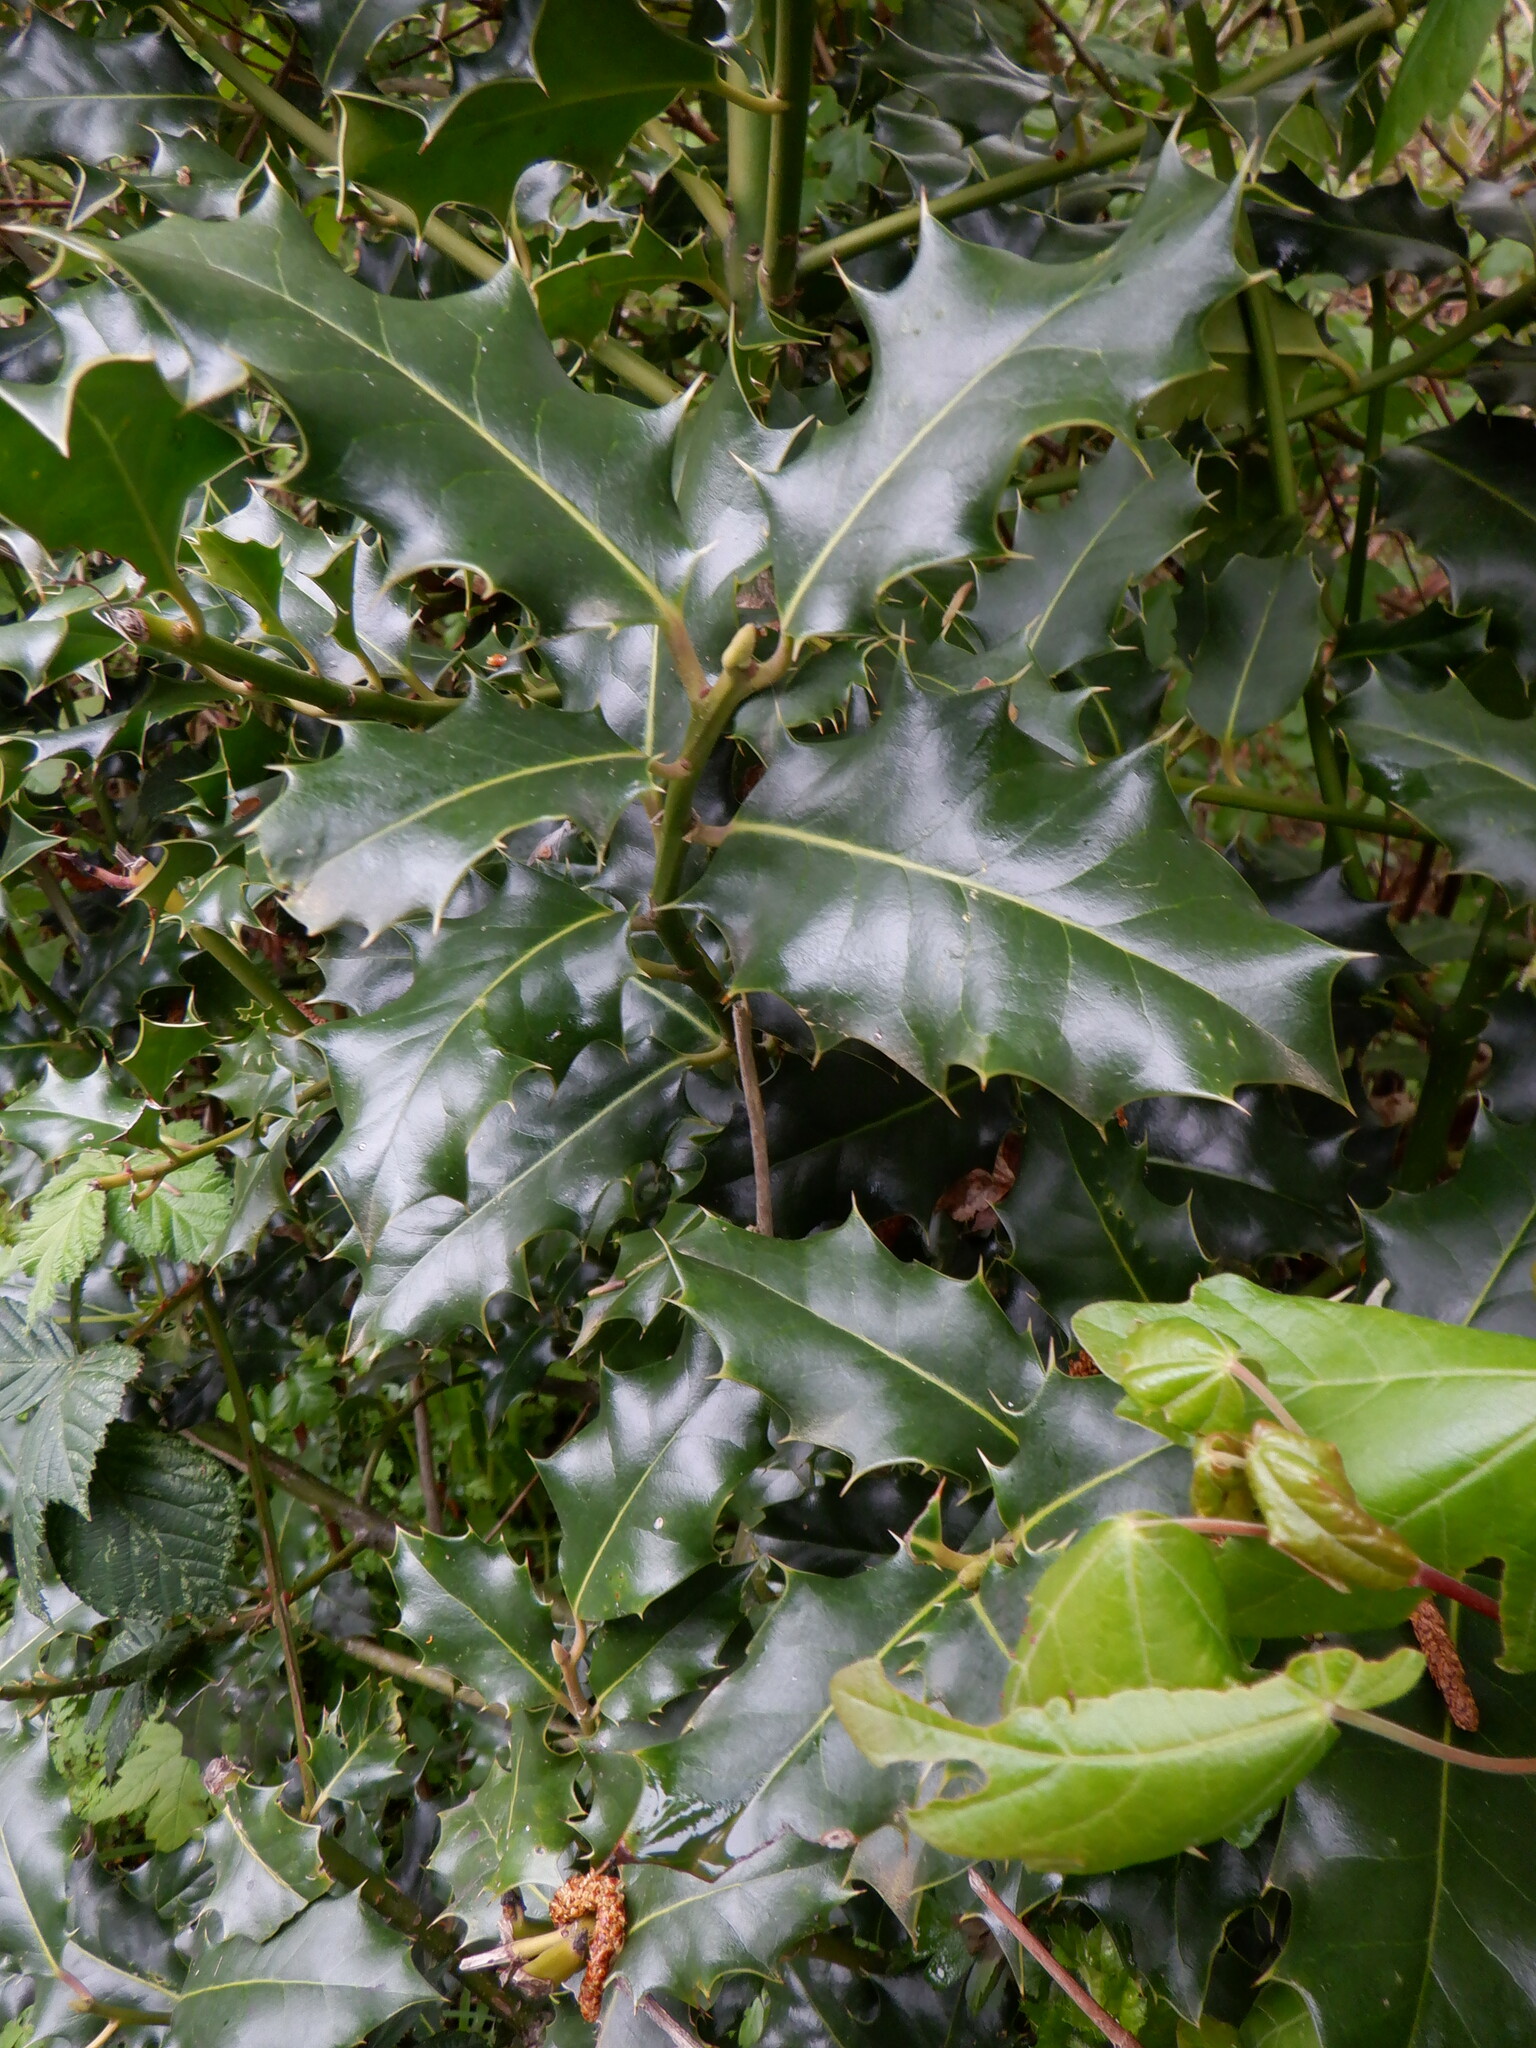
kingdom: Plantae
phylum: Tracheophyta
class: Magnoliopsida
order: Aquifoliales
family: Aquifoliaceae
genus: Ilex
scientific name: Ilex aquifolium
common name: English holly
